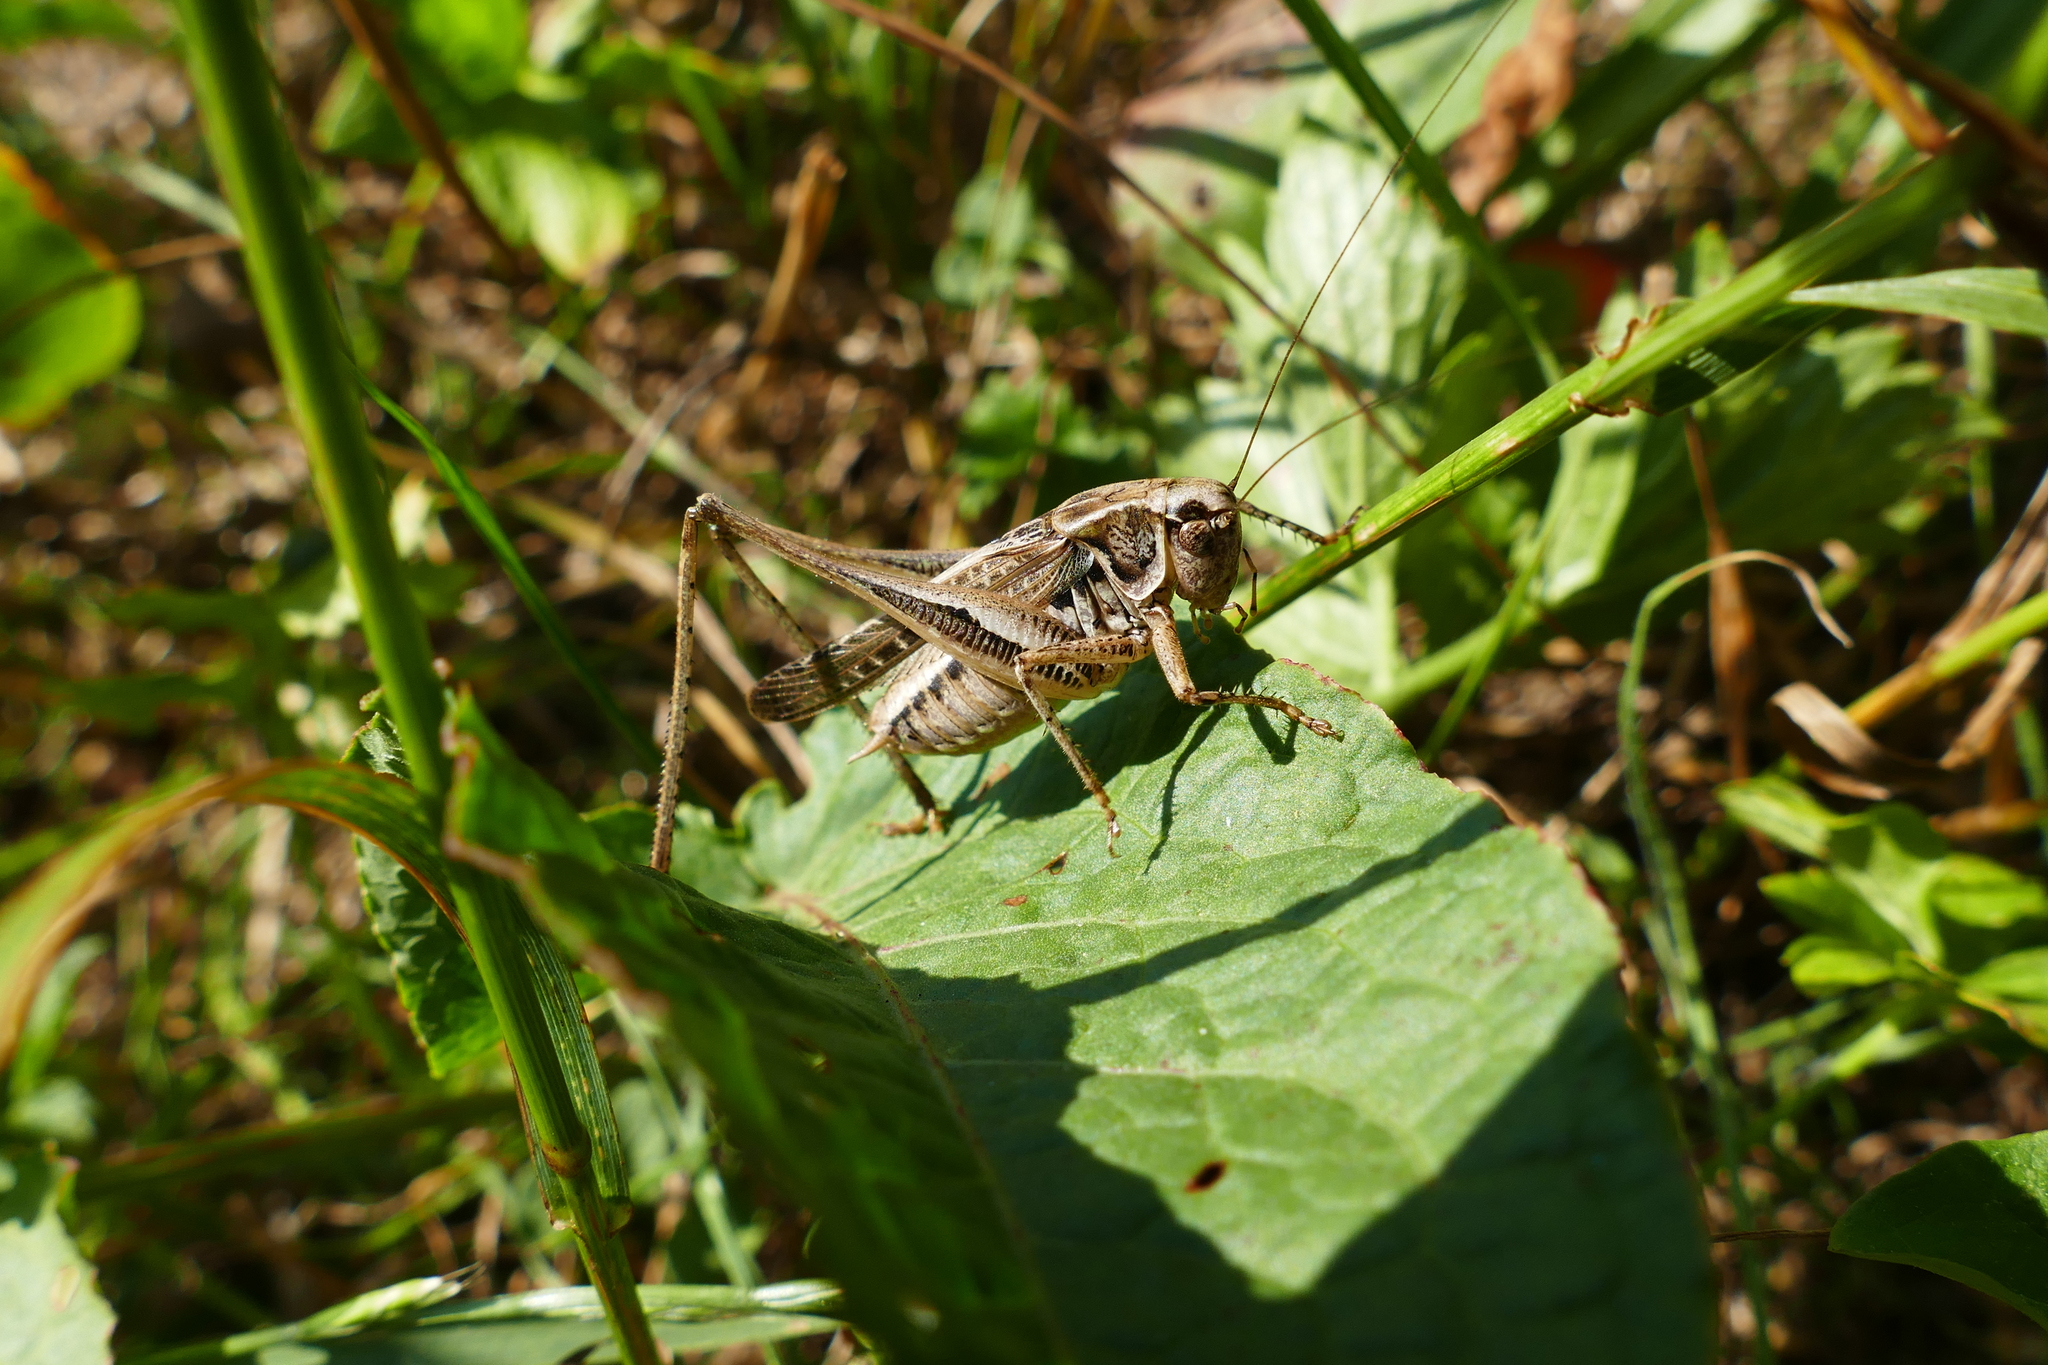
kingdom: Animalia
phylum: Arthropoda
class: Insecta
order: Orthoptera
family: Tettigoniidae
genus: Platycleis
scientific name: Platycleis albopunctata
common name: Grey bush-cricket
